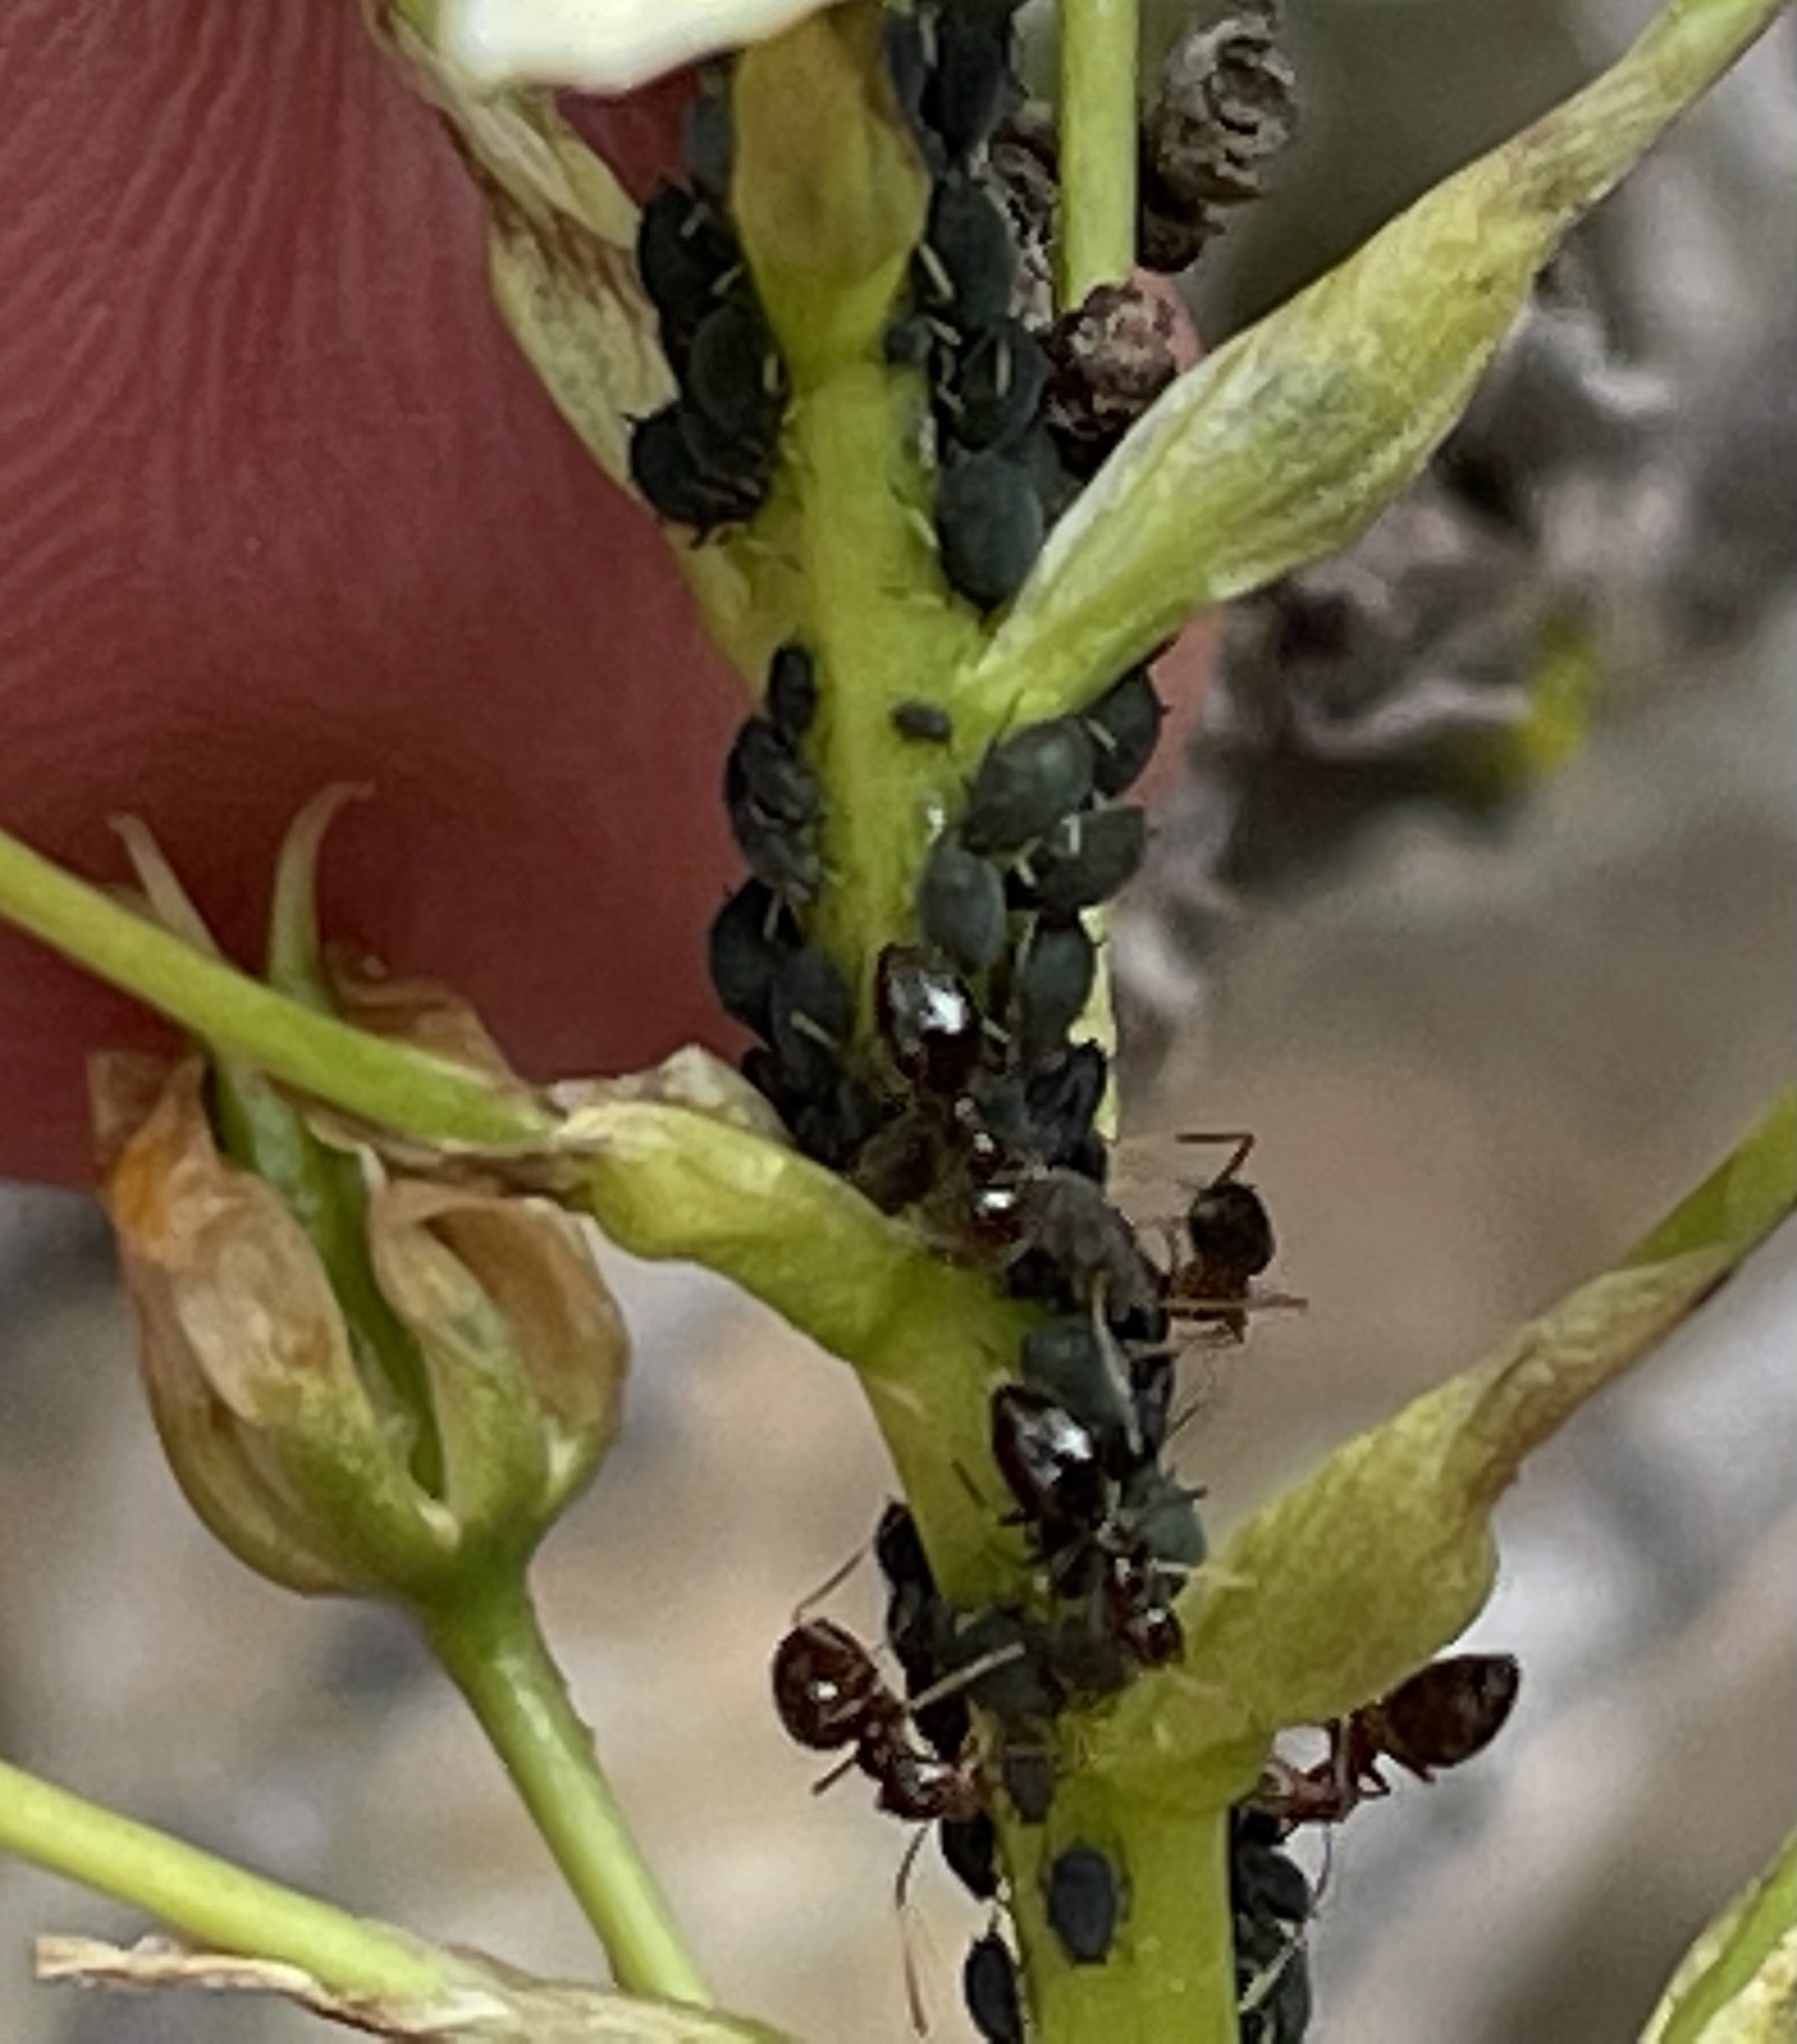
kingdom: Animalia
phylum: Arthropoda
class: Insecta
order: Hymenoptera
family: Formicidae
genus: Prenolepis
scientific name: Prenolepis imparis
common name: Small honey ant
